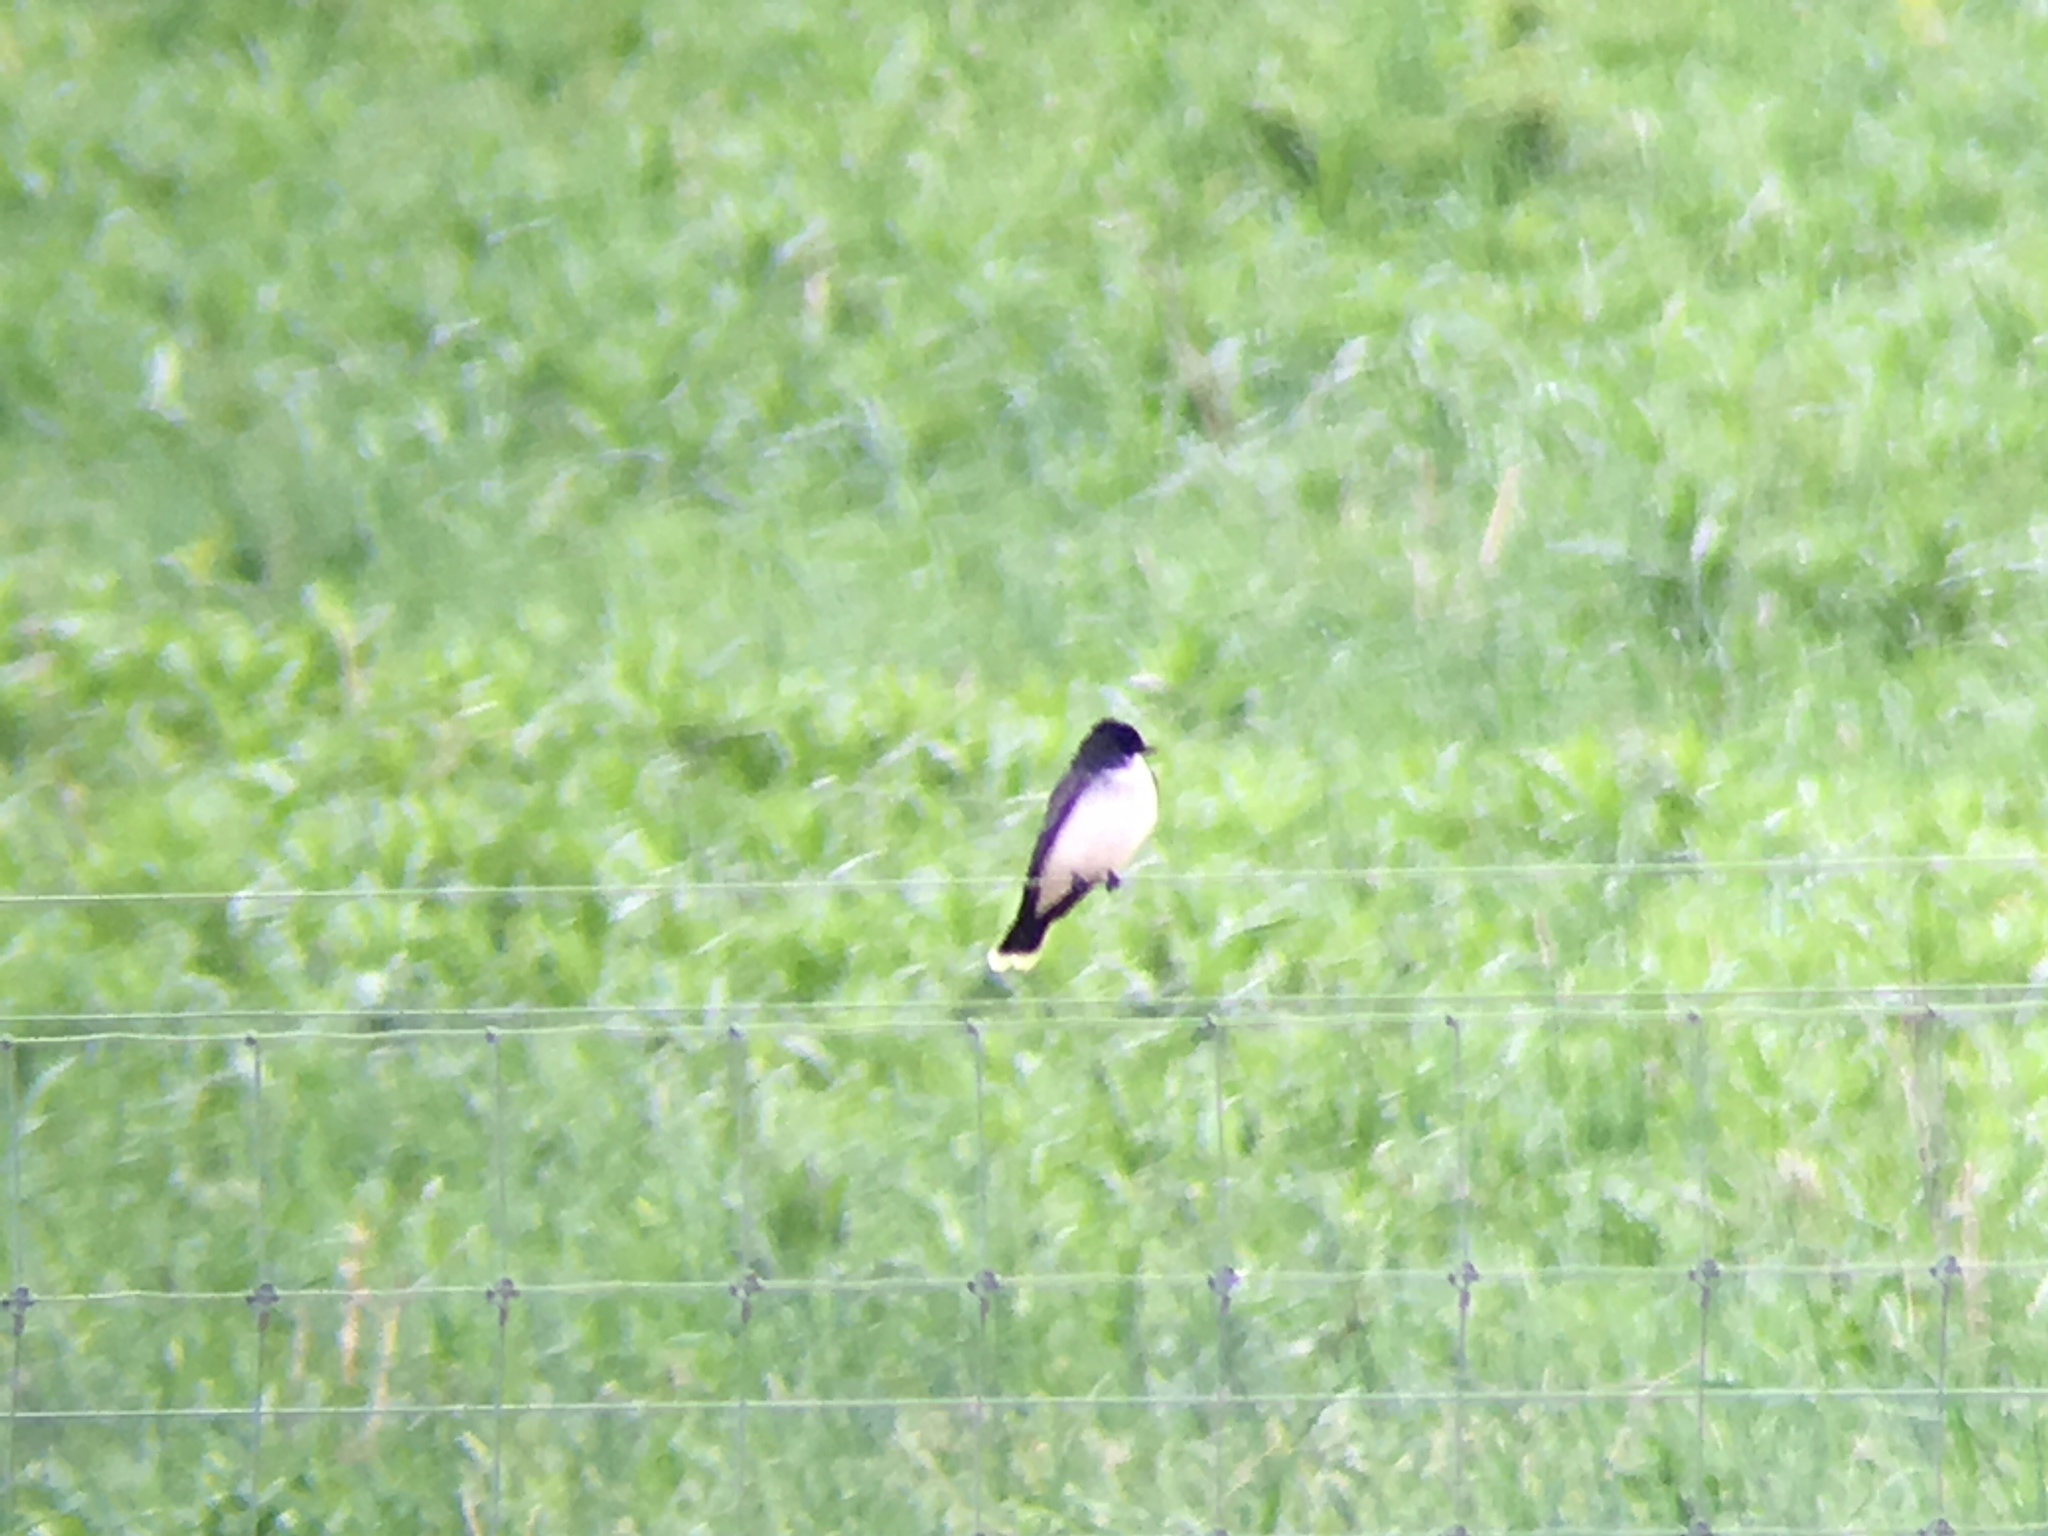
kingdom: Animalia
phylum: Chordata
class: Aves
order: Passeriformes
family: Tyrannidae
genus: Tyrannus
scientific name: Tyrannus tyrannus
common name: Eastern kingbird
